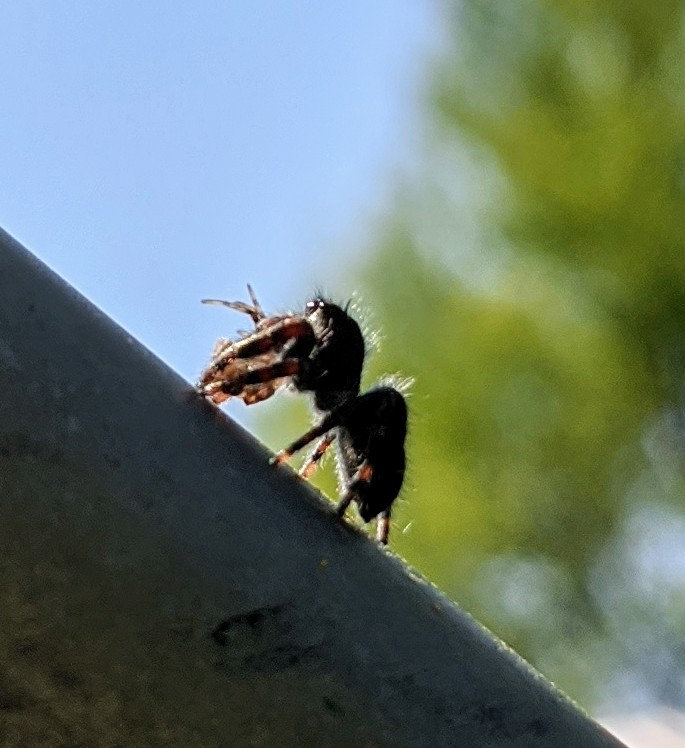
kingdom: Animalia
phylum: Arthropoda
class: Arachnida
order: Araneae
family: Salticidae
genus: Phidippus
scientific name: Phidippus
